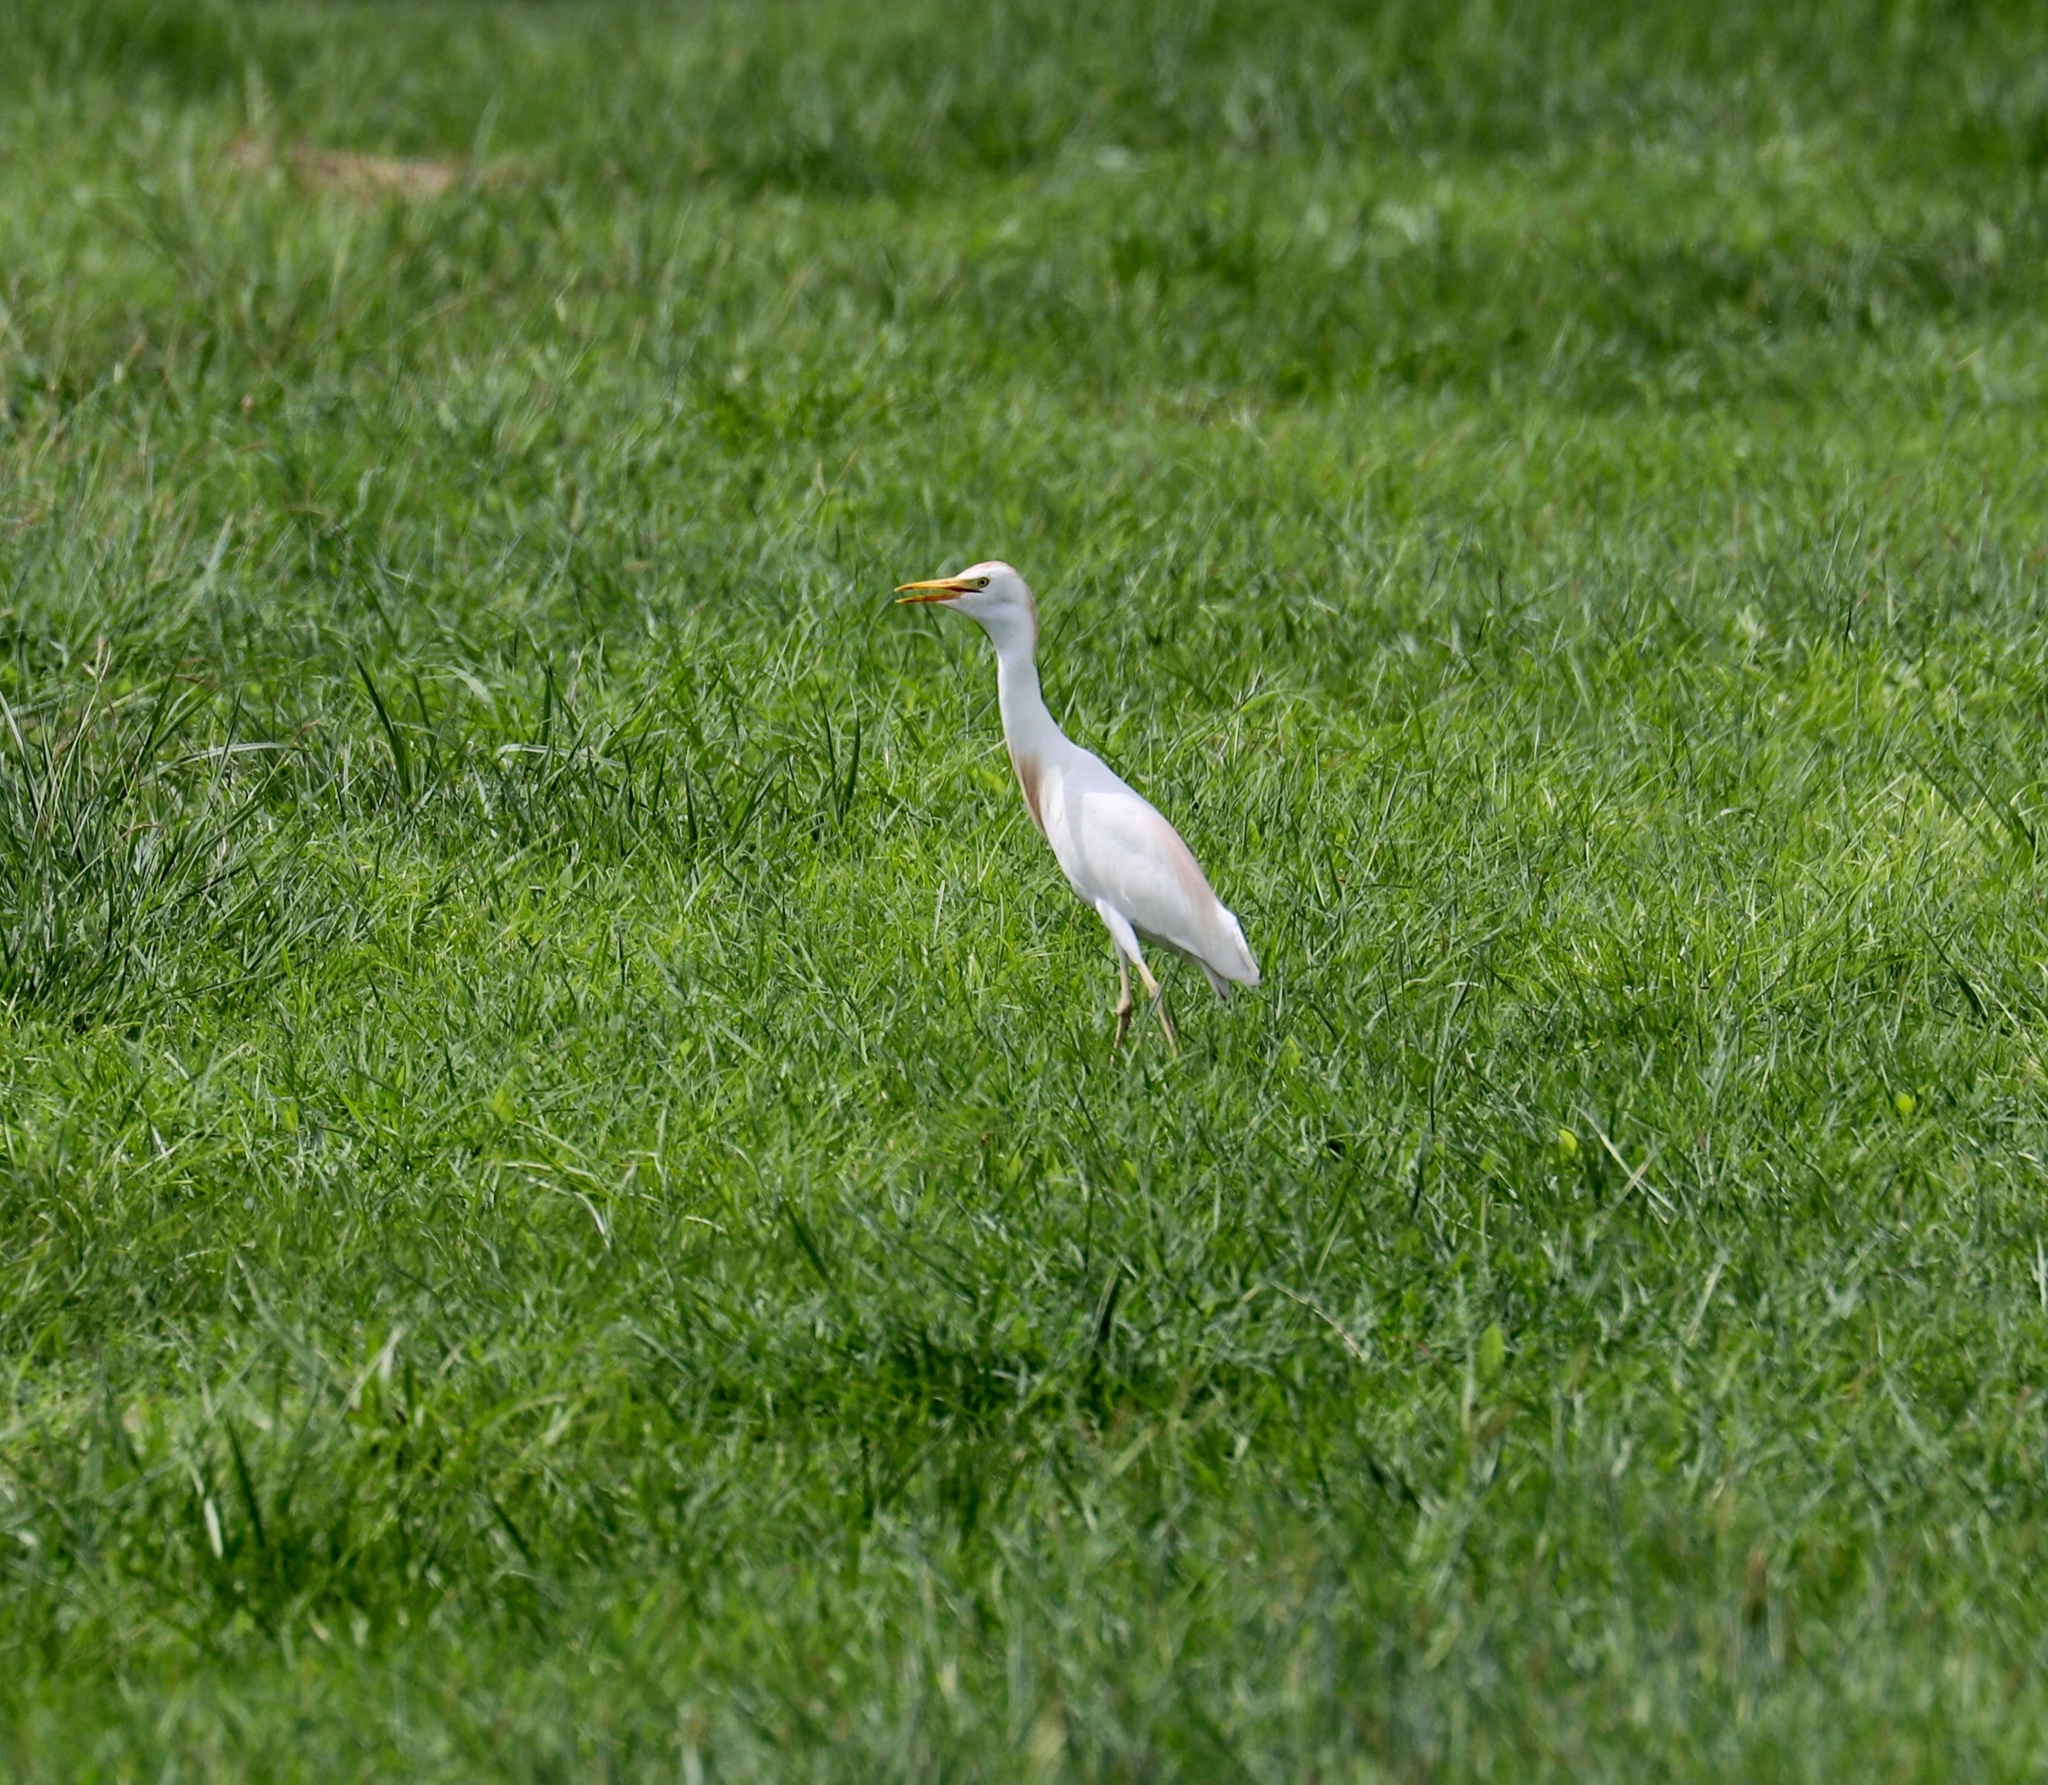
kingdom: Animalia
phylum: Chordata
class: Aves
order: Pelecaniformes
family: Ardeidae
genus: Bubulcus
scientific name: Bubulcus ibis
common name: Cattle egret
